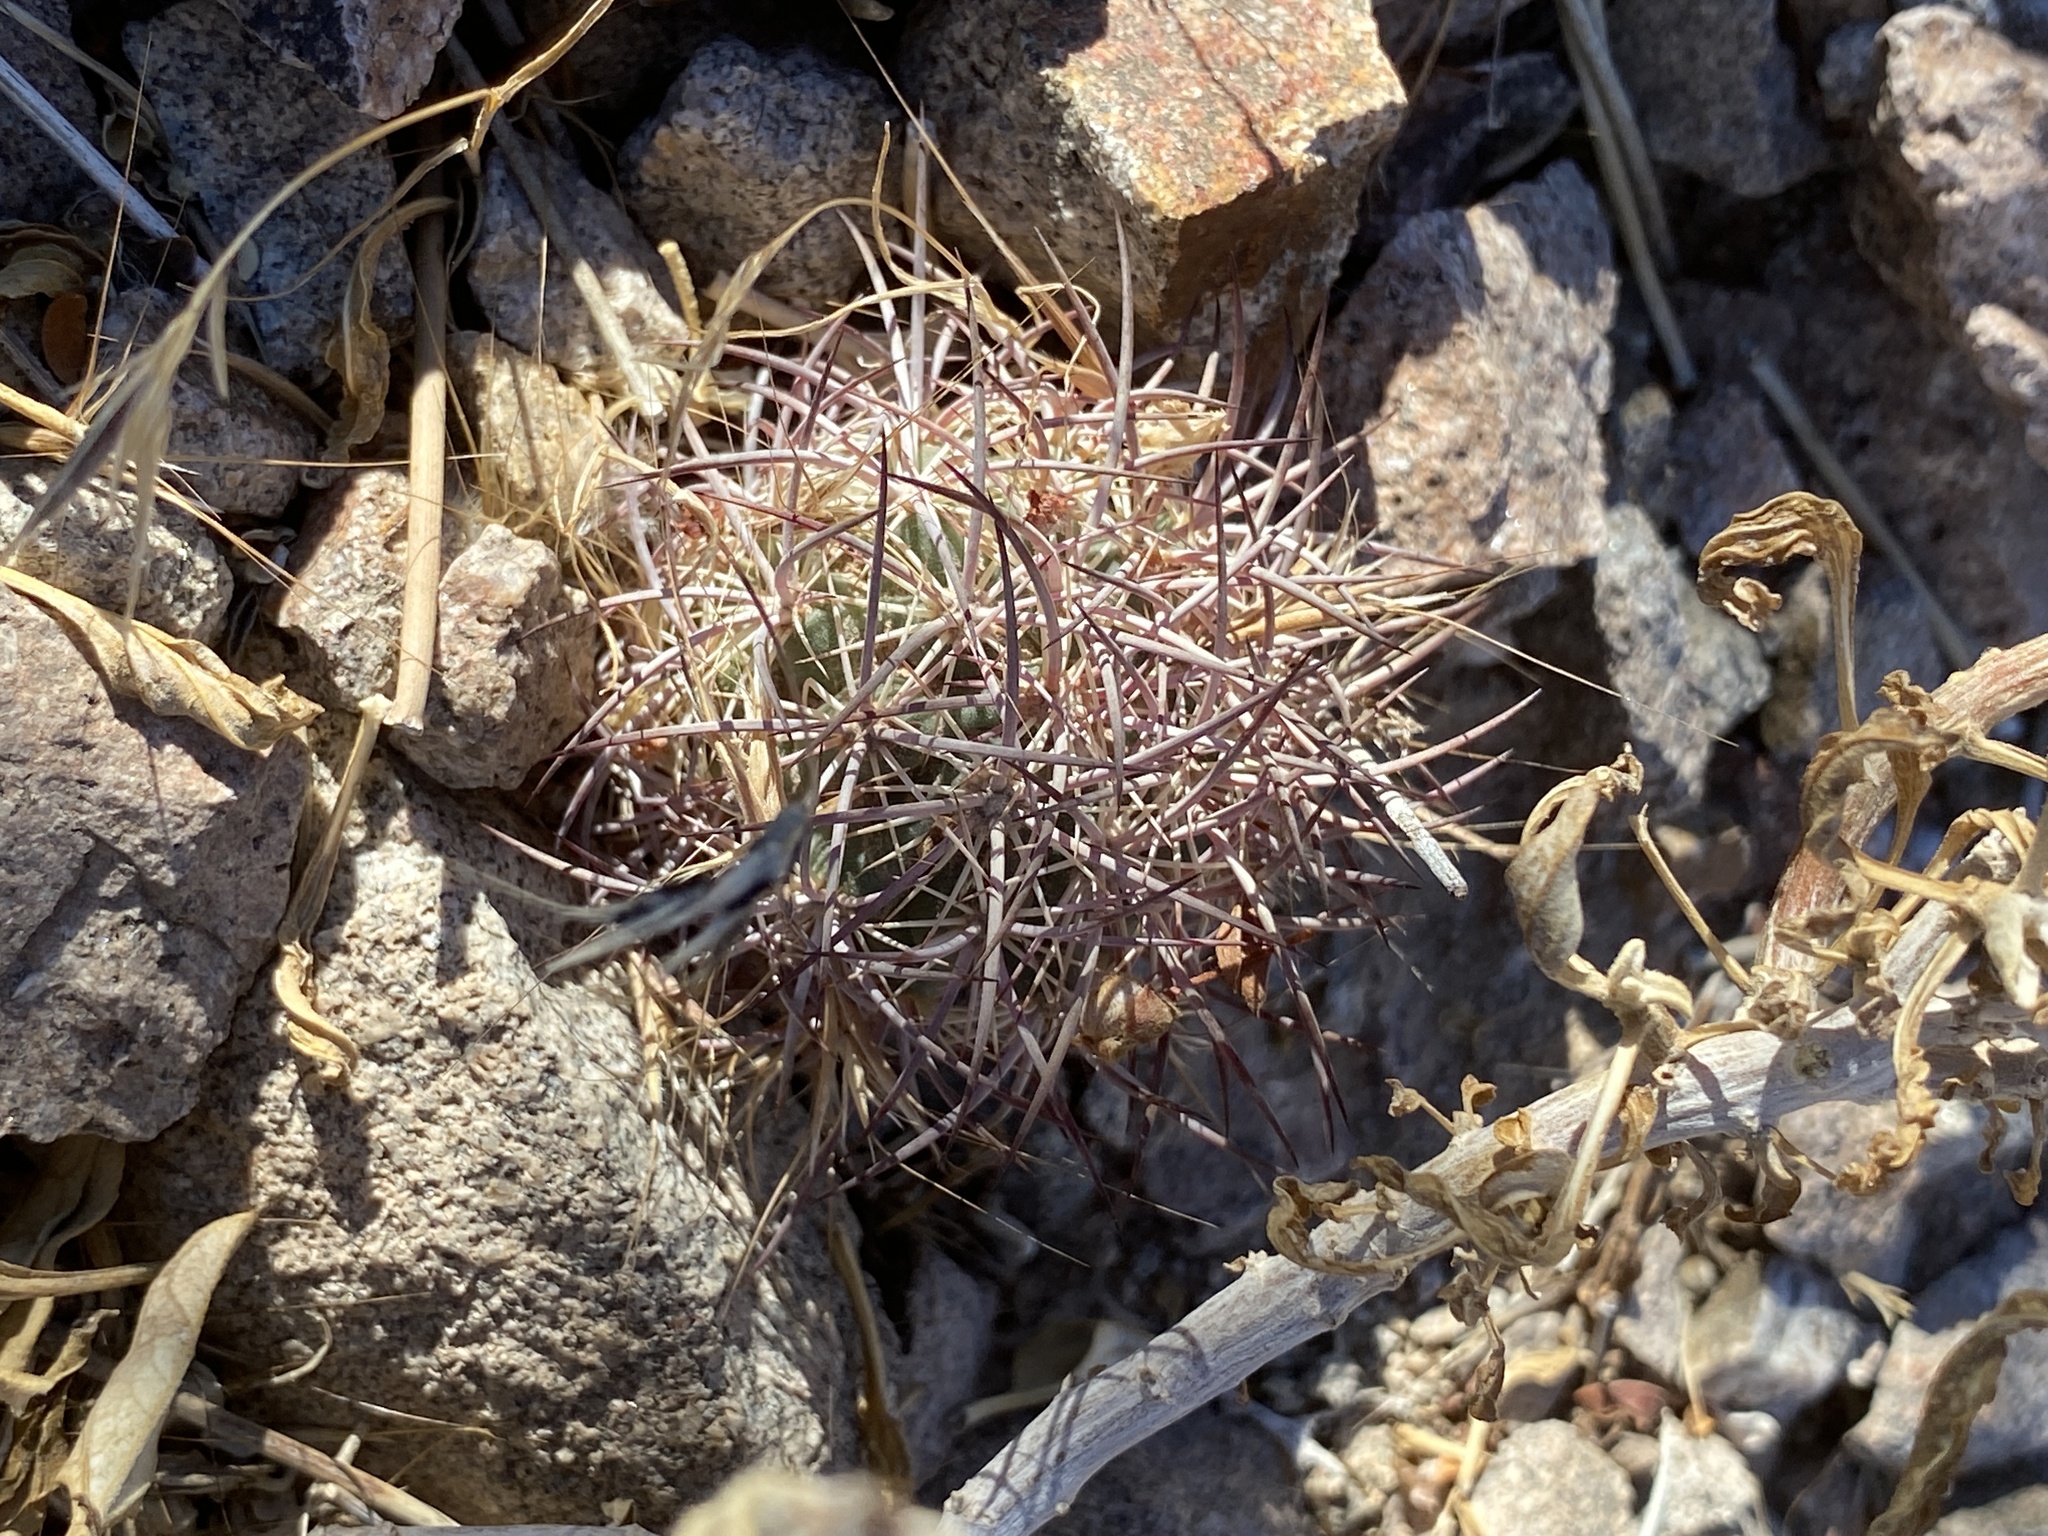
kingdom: Plantae
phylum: Tracheophyta
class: Magnoliopsida
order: Caryophyllales
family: Cactaceae
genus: Sclerocactus
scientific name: Sclerocactus johnsonii
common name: Eight-spine fishhook cactus
